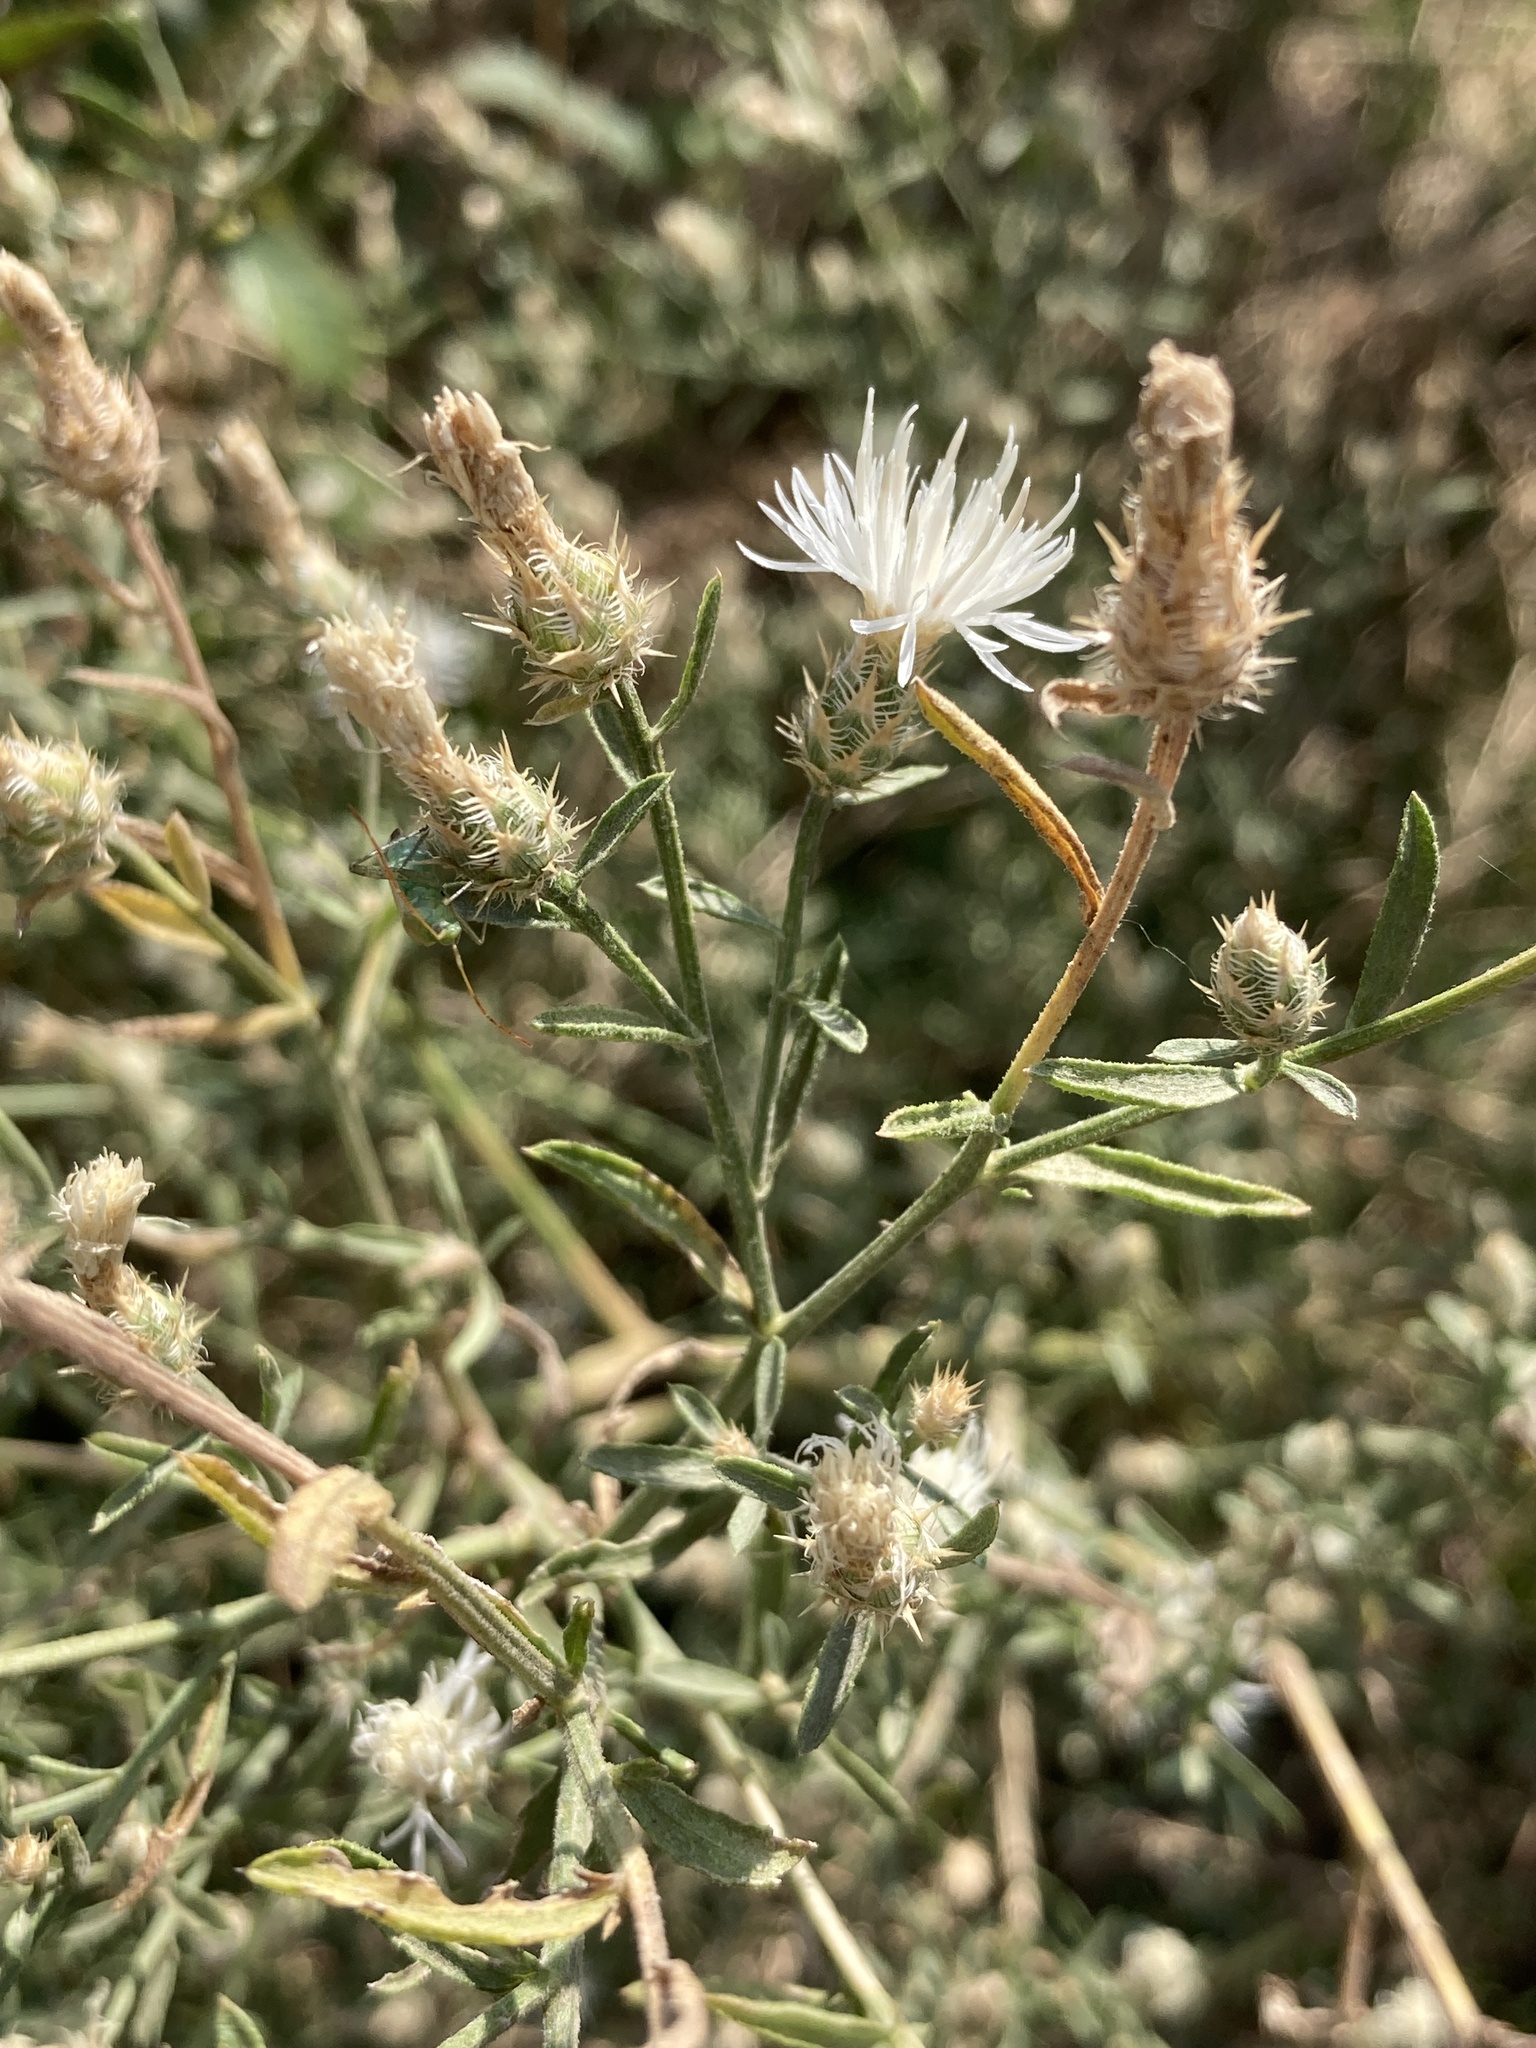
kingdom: Plantae
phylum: Tracheophyta
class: Magnoliopsida
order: Asterales
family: Asteraceae
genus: Centaurea
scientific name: Centaurea diffusa
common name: Diffuse knapweed
